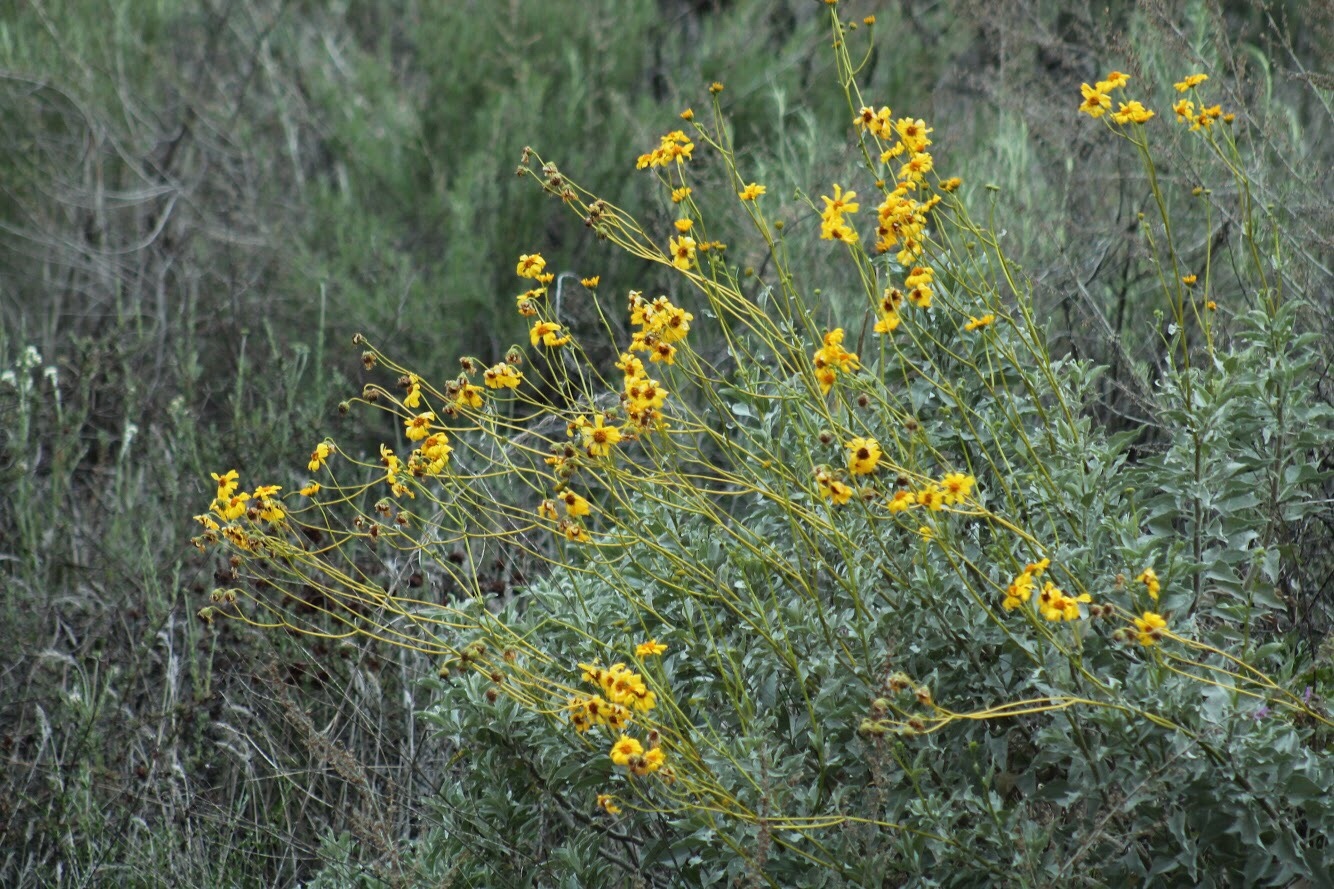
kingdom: Plantae
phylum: Tracheophyta
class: Magnoliopsida
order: Asterales
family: Asteraceae
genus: Encelia
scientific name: Encelia farinosa
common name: Brittlebush
